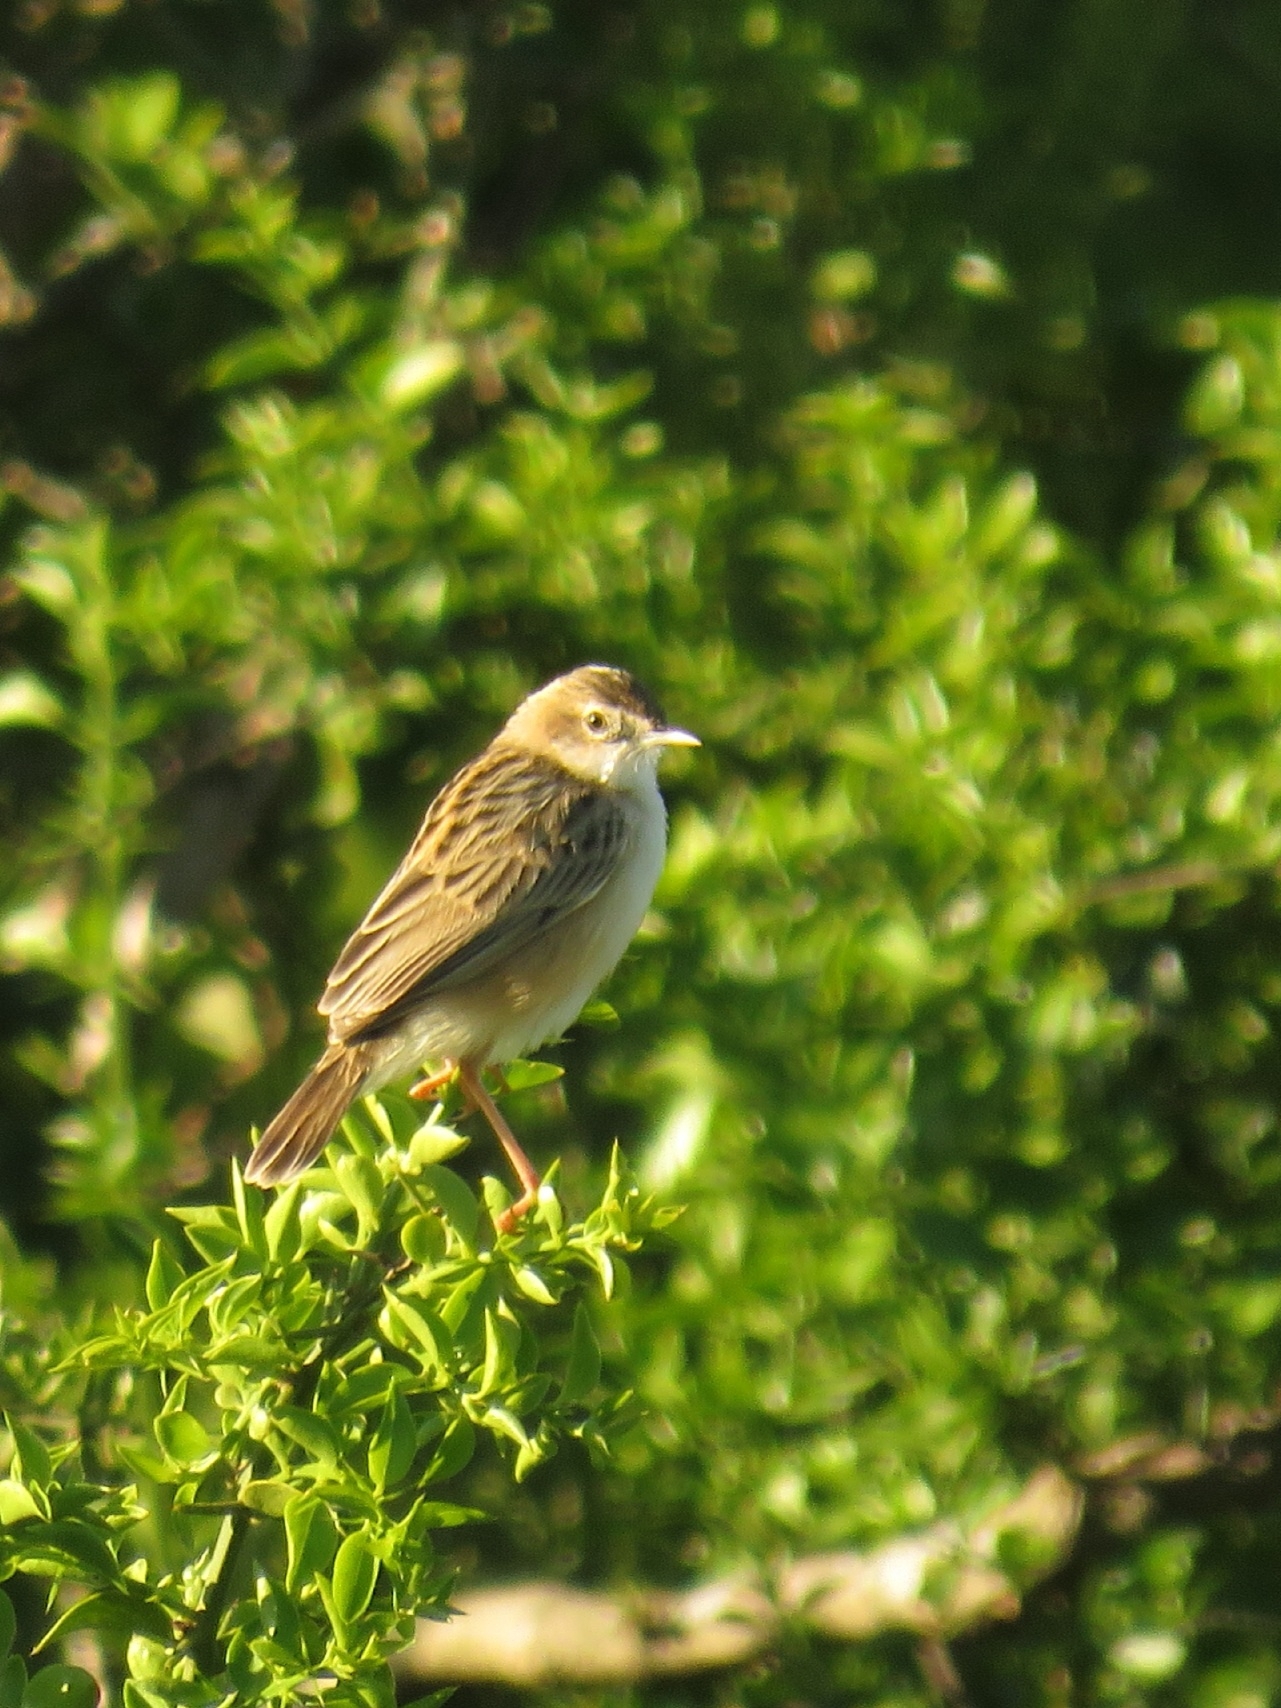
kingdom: Animalia
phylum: Chordata
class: Aves
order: Passeriformes
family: Cisticolidae
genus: Cisticola
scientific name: Cisticola juncidis
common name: Zitting cisticola
